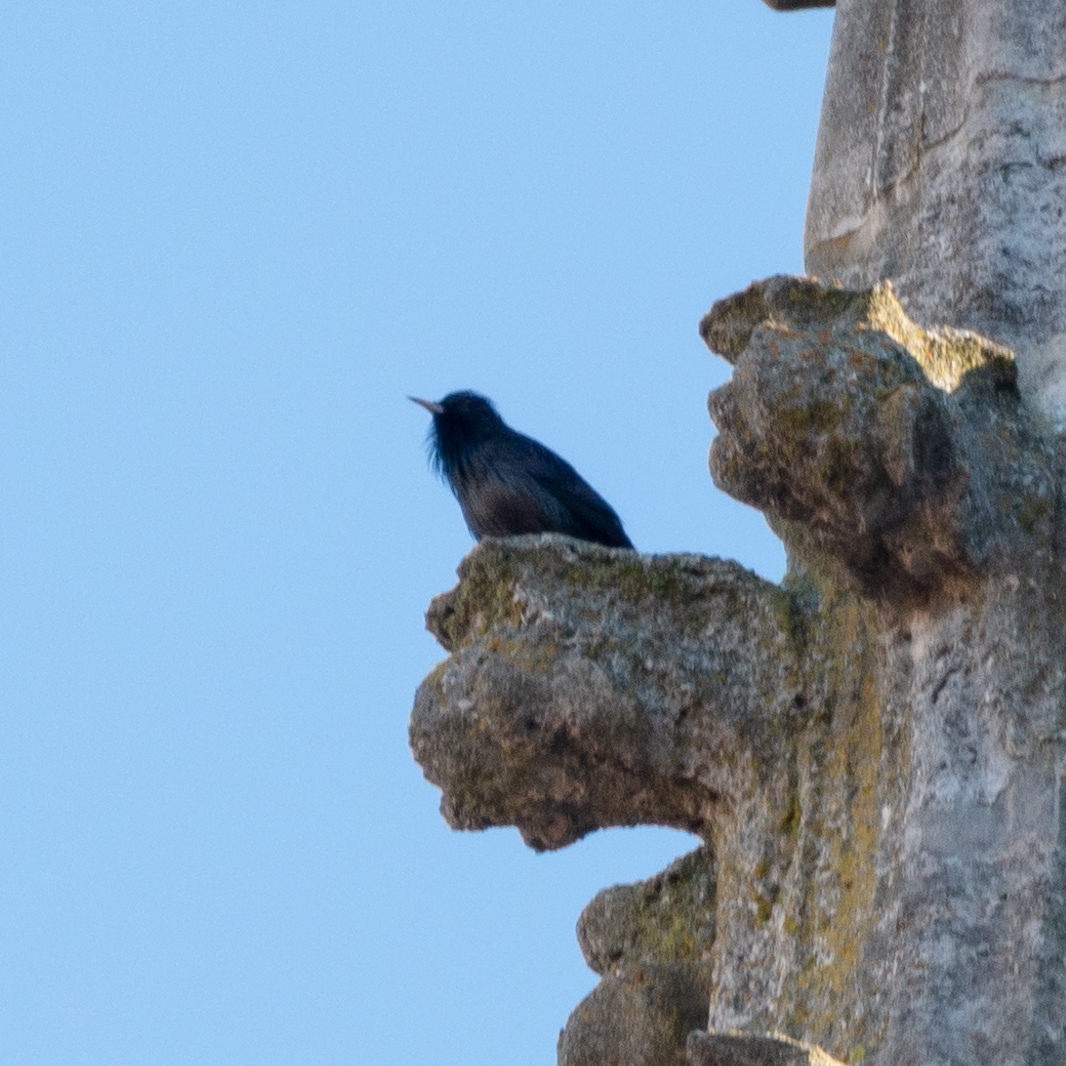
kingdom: Animalia
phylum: Chordata
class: Aves
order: Passeriformes
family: Sturnidae
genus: Sturnus
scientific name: Sturnus unicolor
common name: Spotless starling
